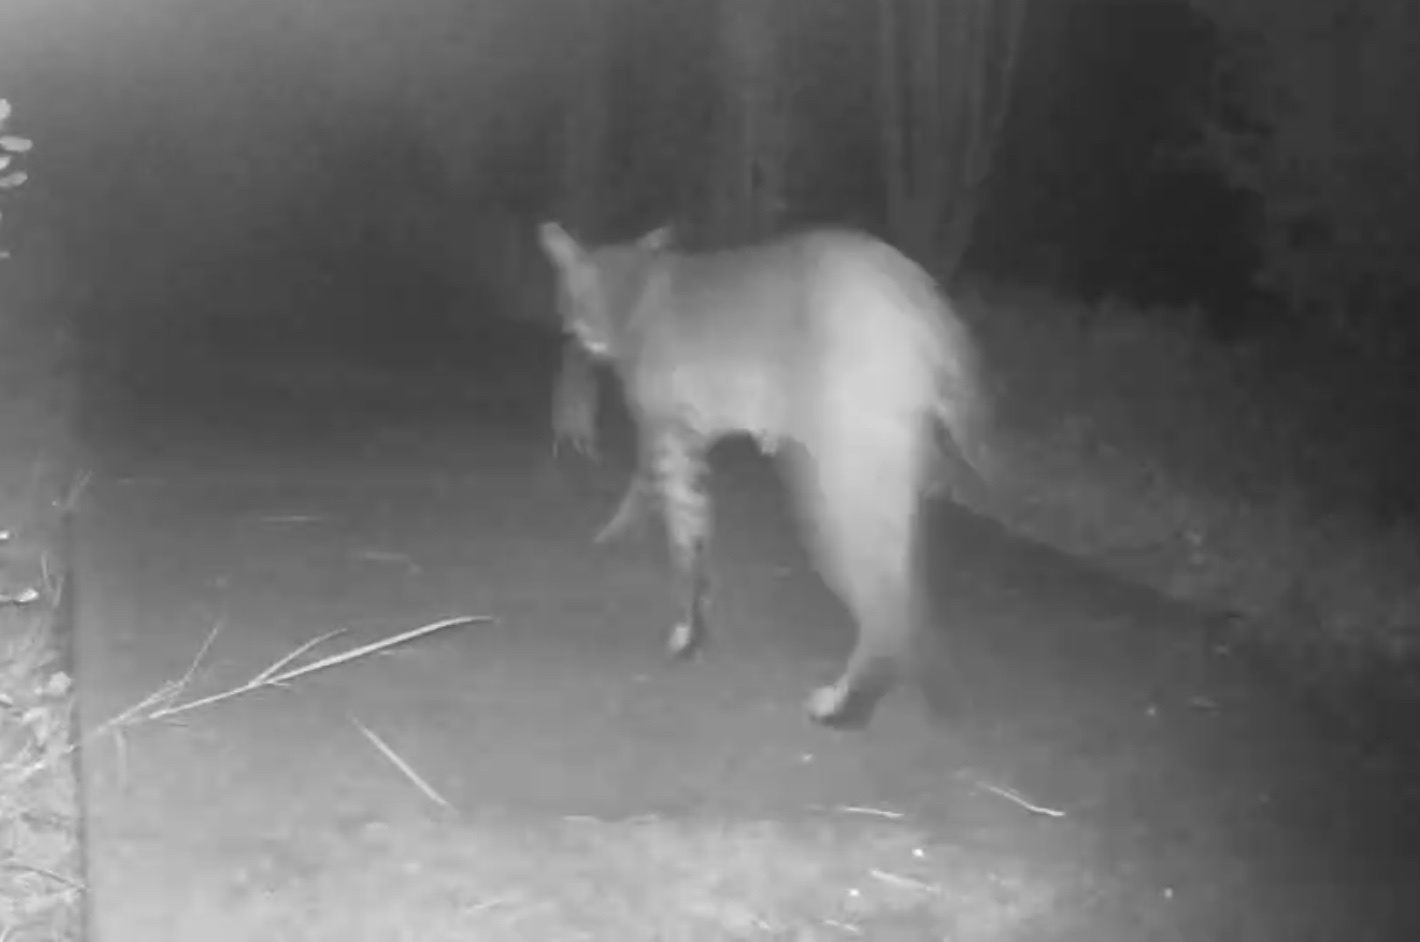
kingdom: Animalia
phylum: Chordata
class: Mammalia
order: Carnivora
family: Felidae
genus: Lynx
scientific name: Lynx rufus
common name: Bobcat
